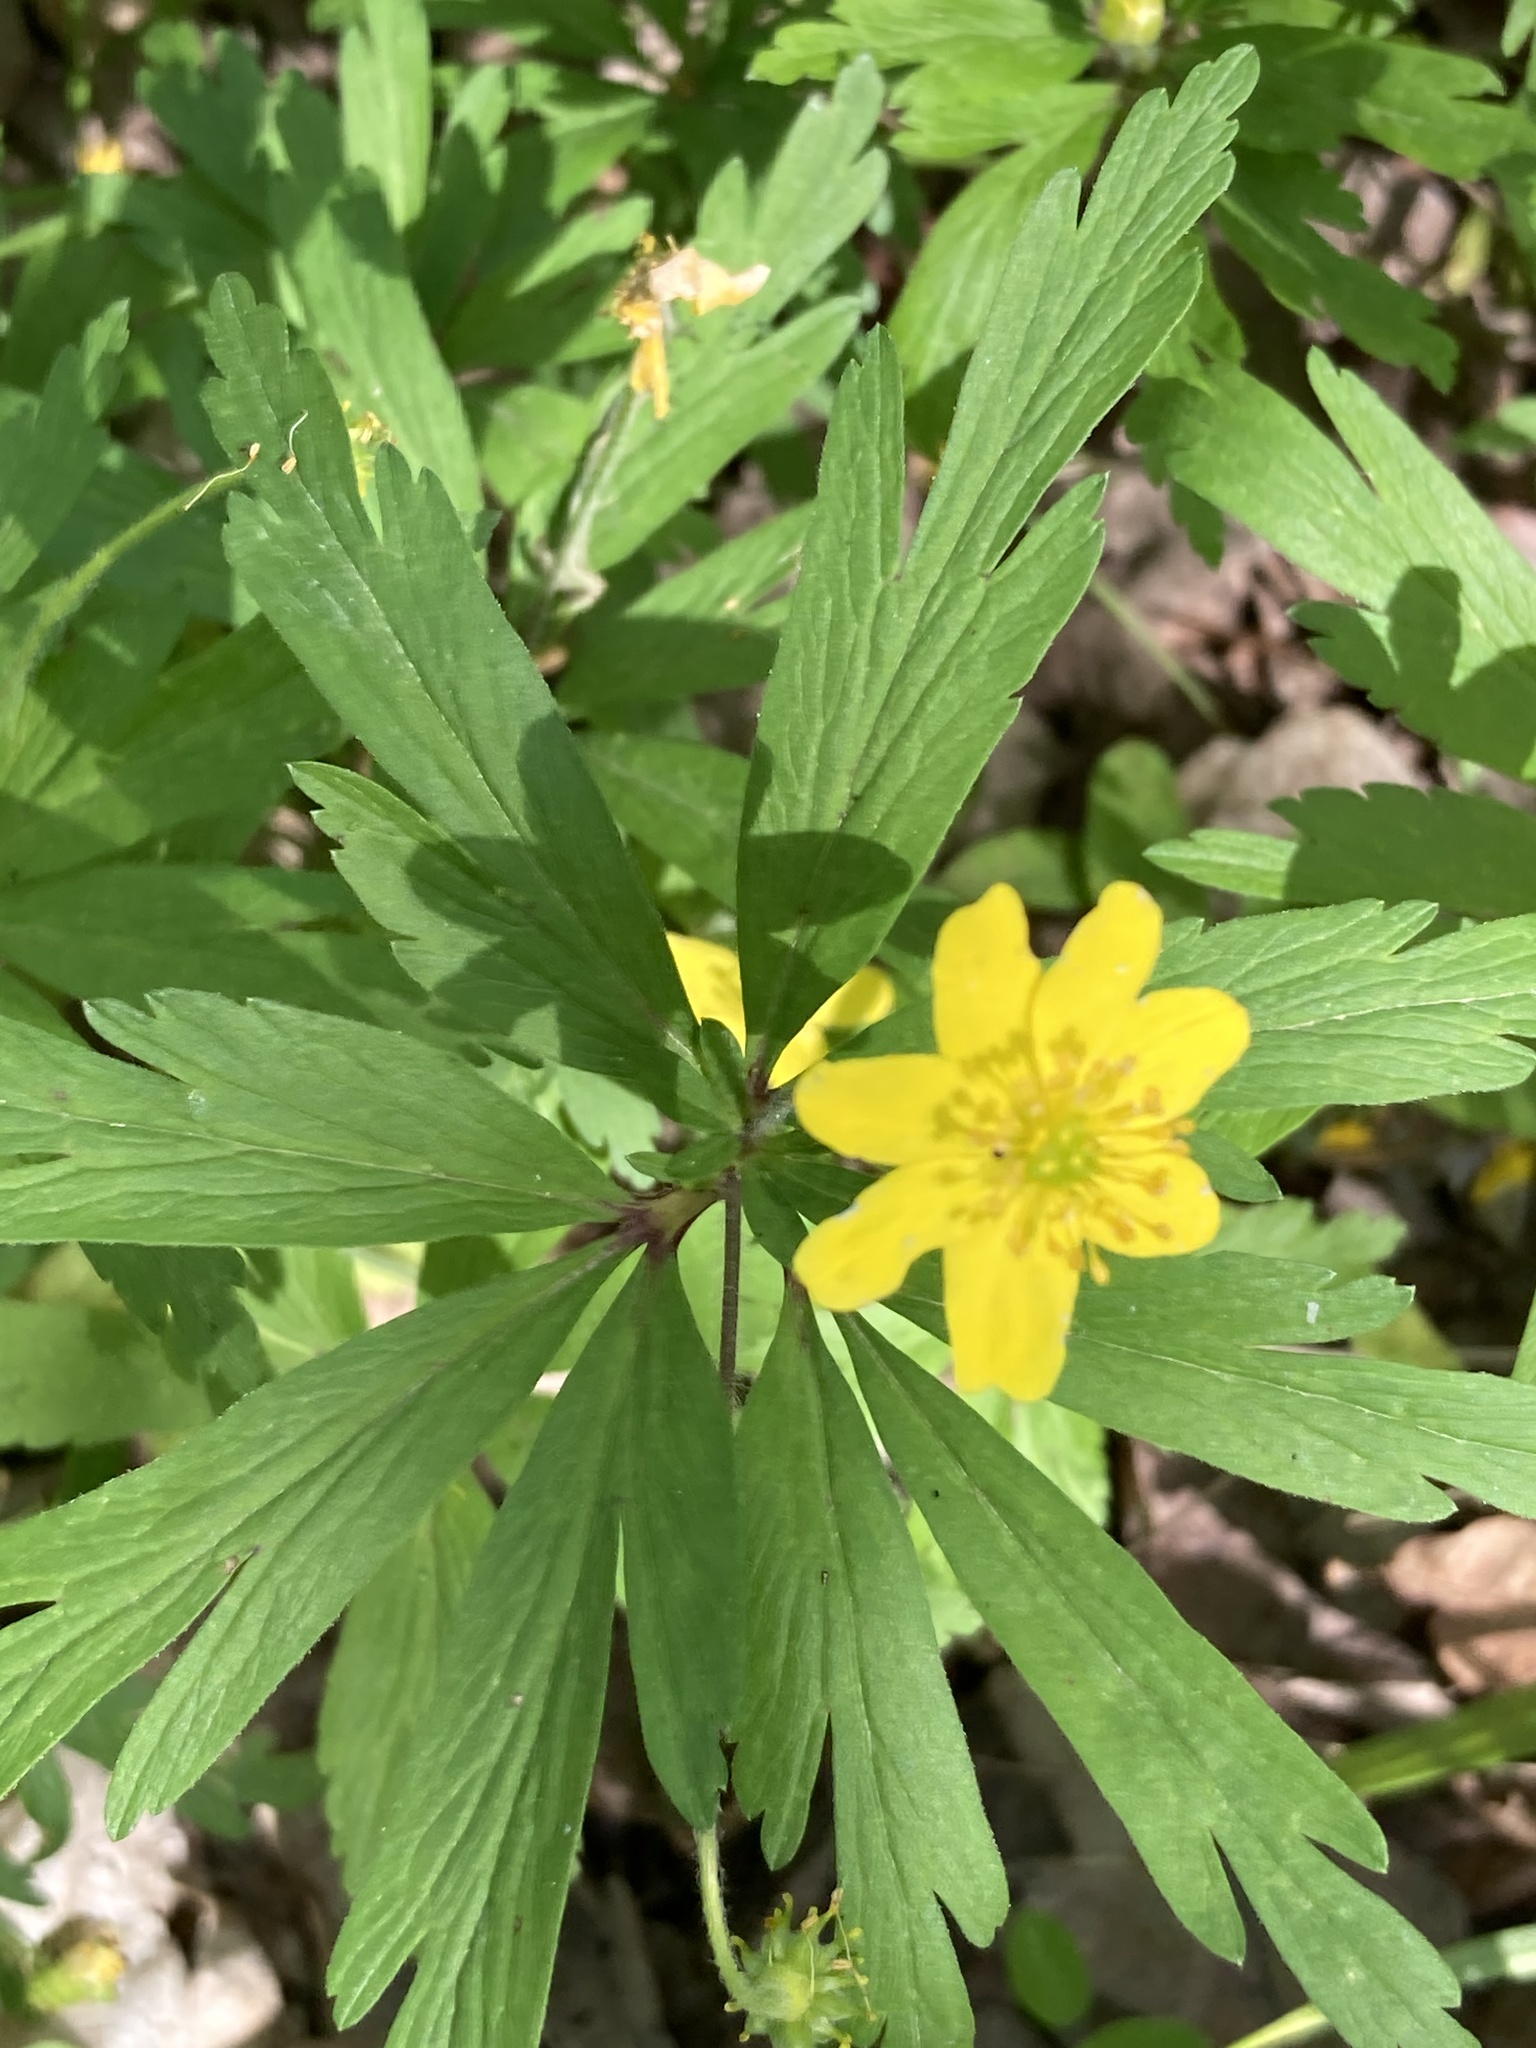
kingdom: Plantae
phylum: Tracheophyta
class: Magnoliopsida
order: Ranunculales
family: Ranunculaceae
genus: Anemone
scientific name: Anemone ranunculoides
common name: Yellow anemone
